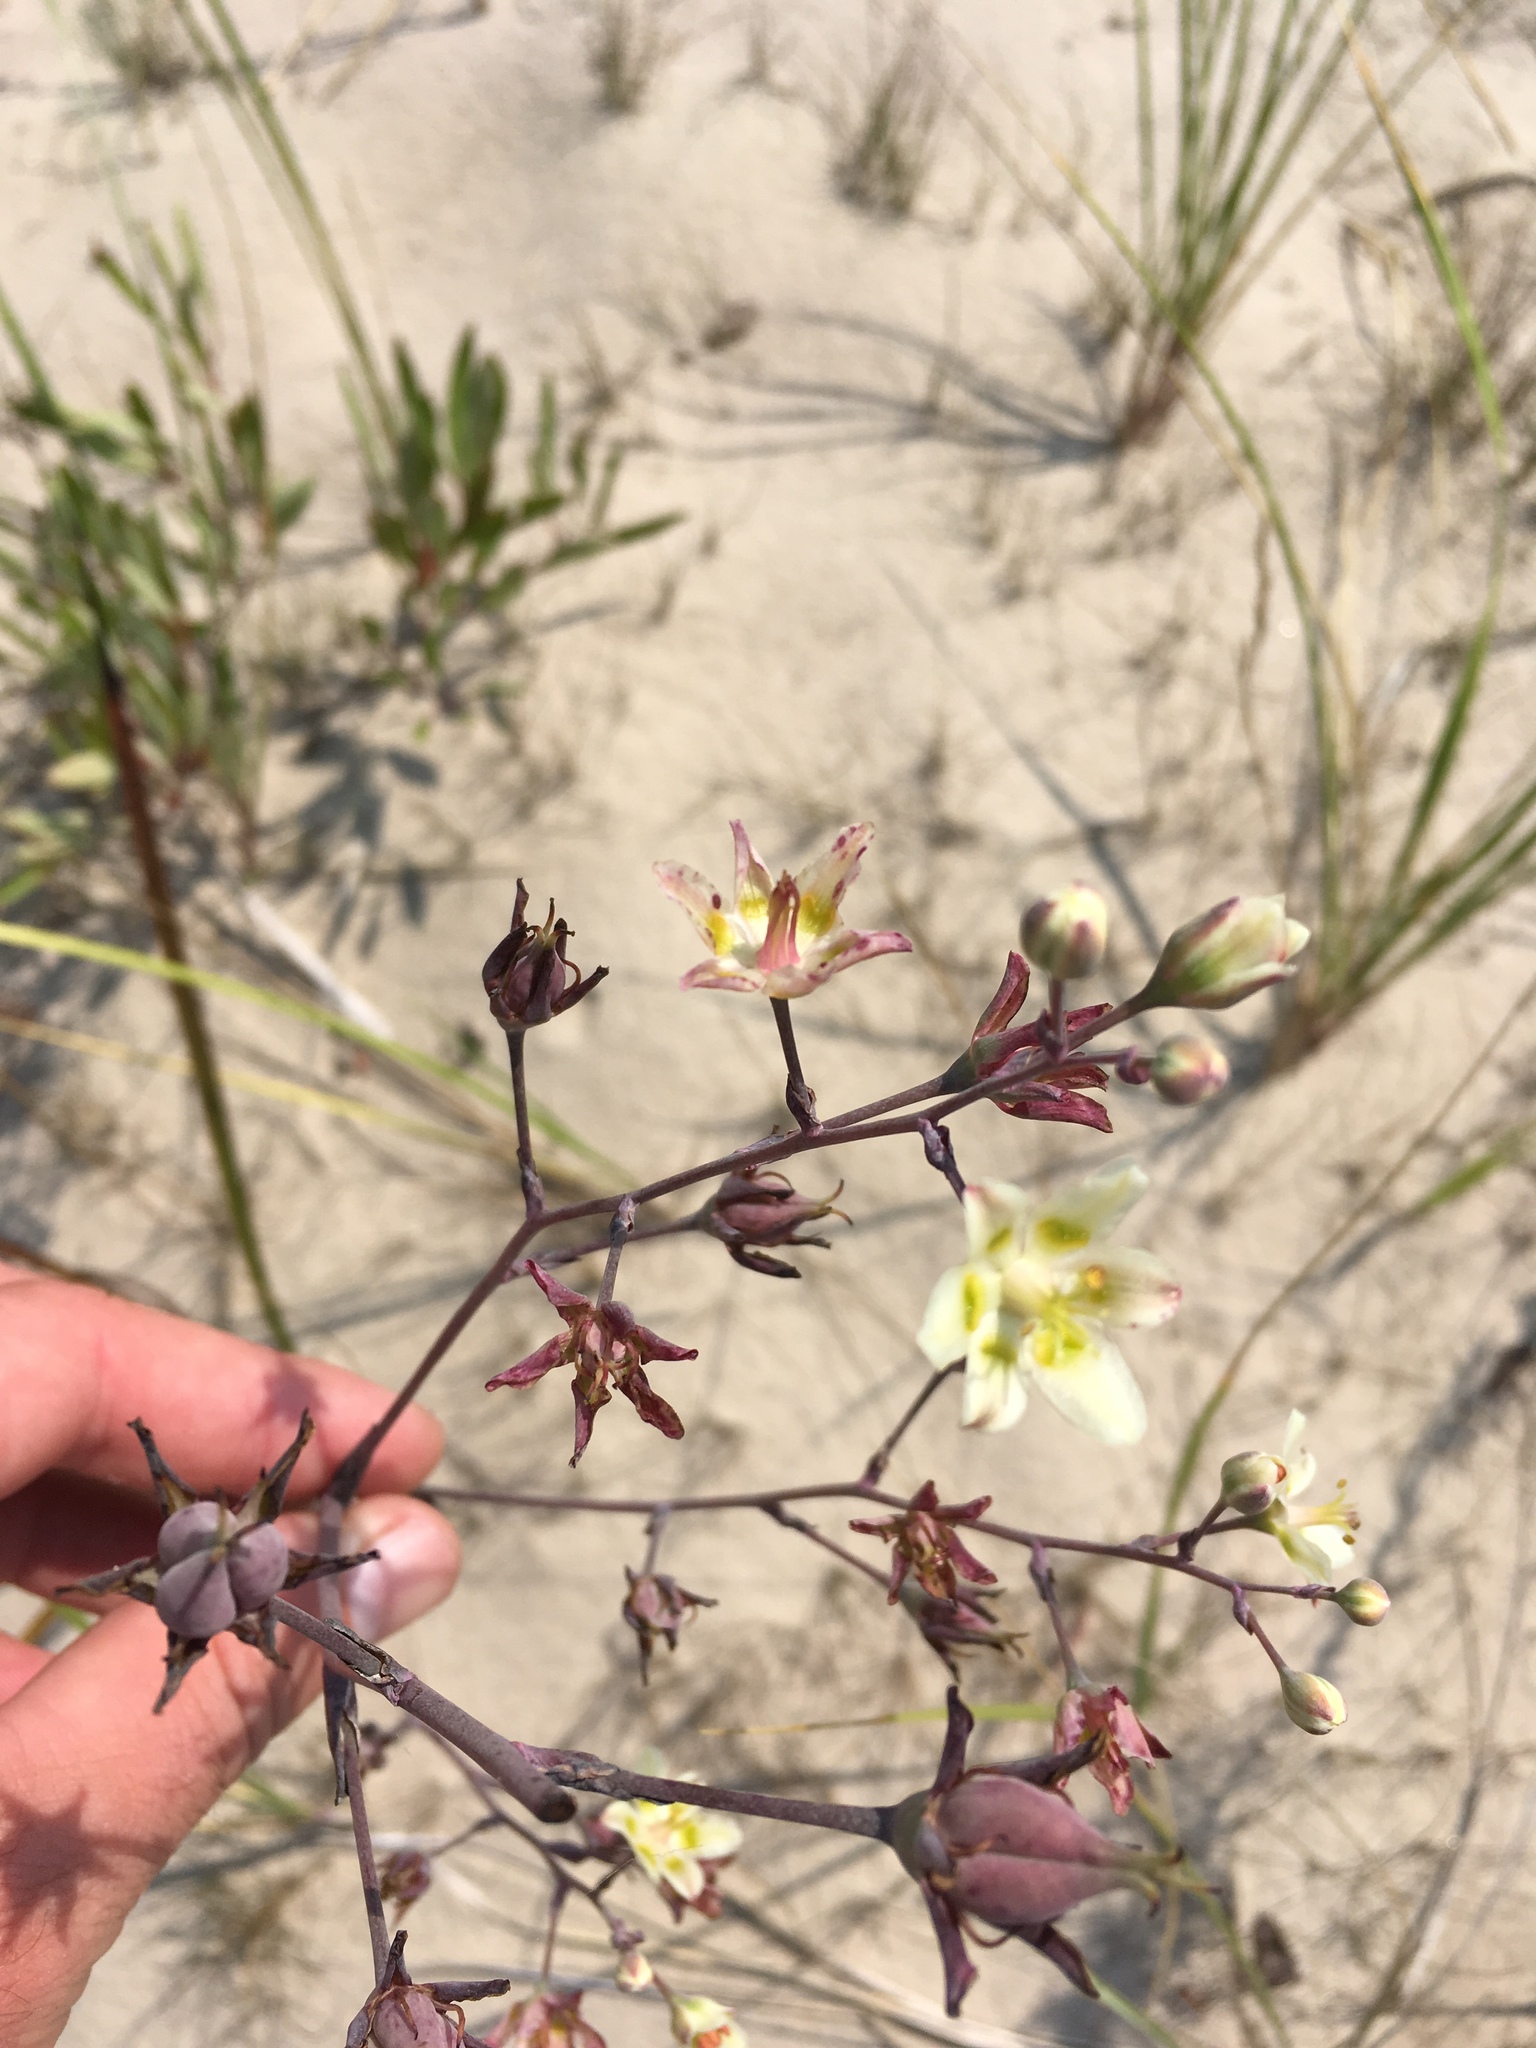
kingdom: Plantae
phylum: Tracheophyta
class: Liliopsida
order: Liliales
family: Melanthiaceae
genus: Anticlea
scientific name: Anticlea elegans
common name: Mountain death camas
